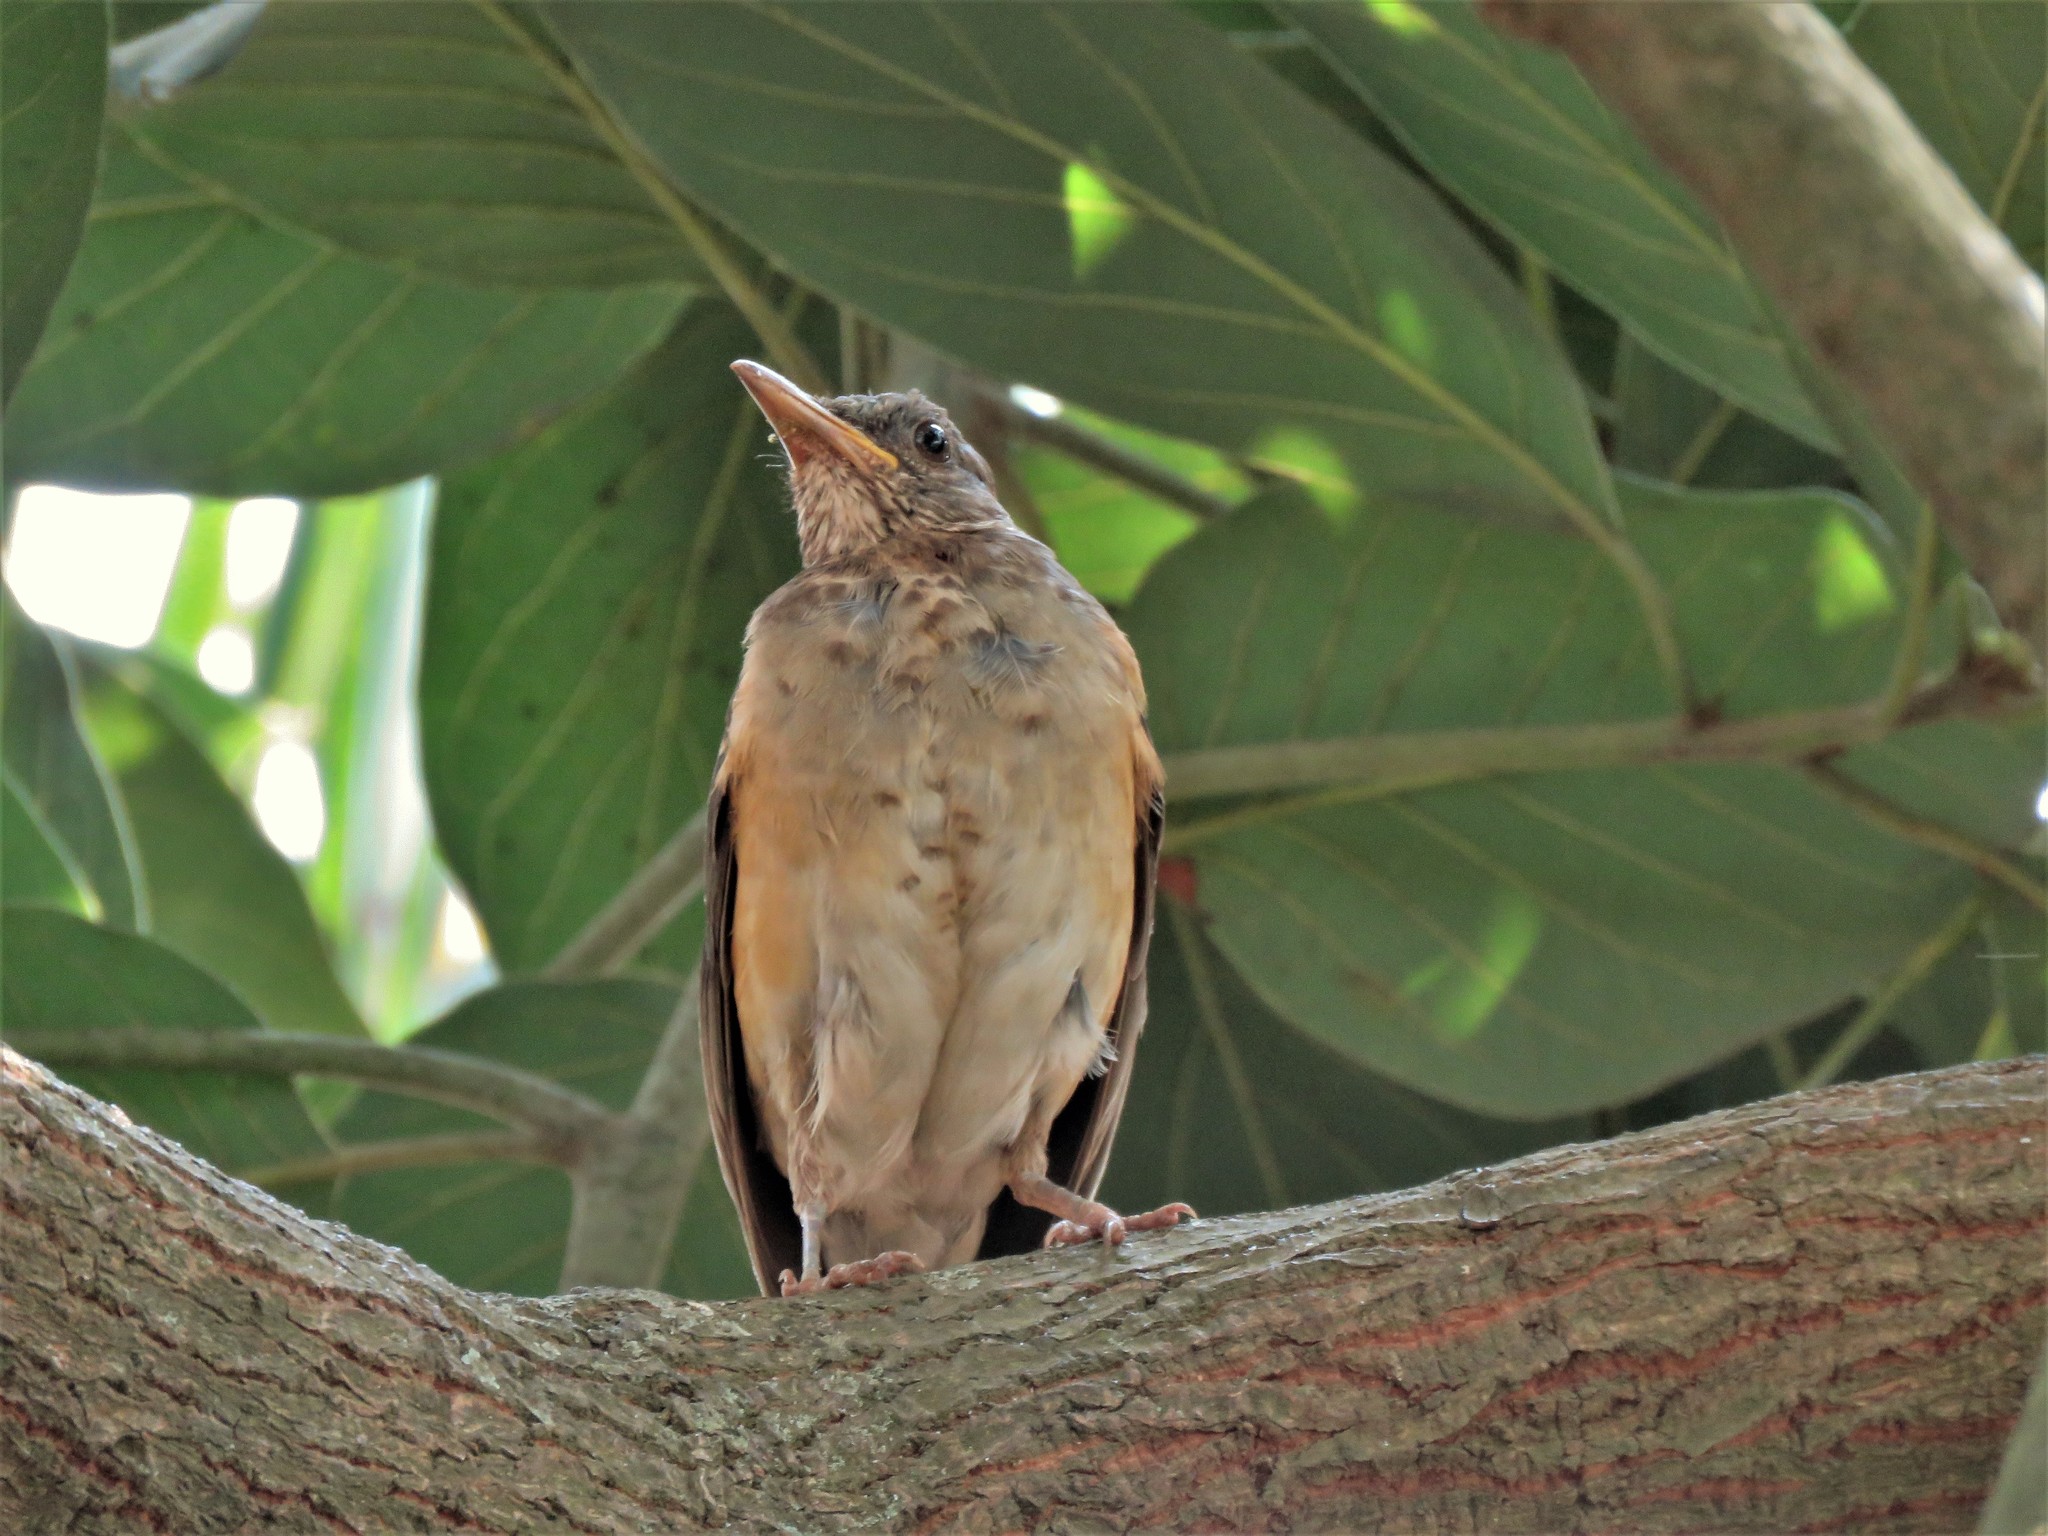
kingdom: Animalia
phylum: Chordata
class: Aves
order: Passeriformes
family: Turdidae
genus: Turdus
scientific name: Turdus pelios
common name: African thrush
